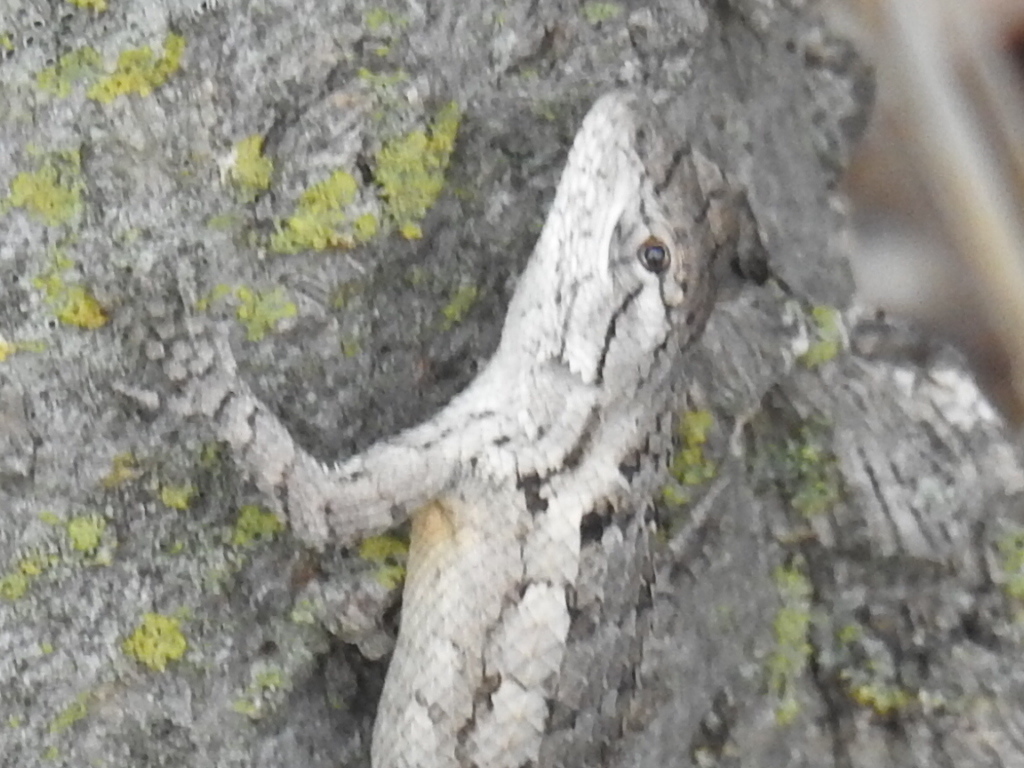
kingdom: Animalia
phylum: Chordata
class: Squamata
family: Phrynosomatidae
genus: Sceloporus
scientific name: Sceloporus olivaceus
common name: Texas spiny lizard
